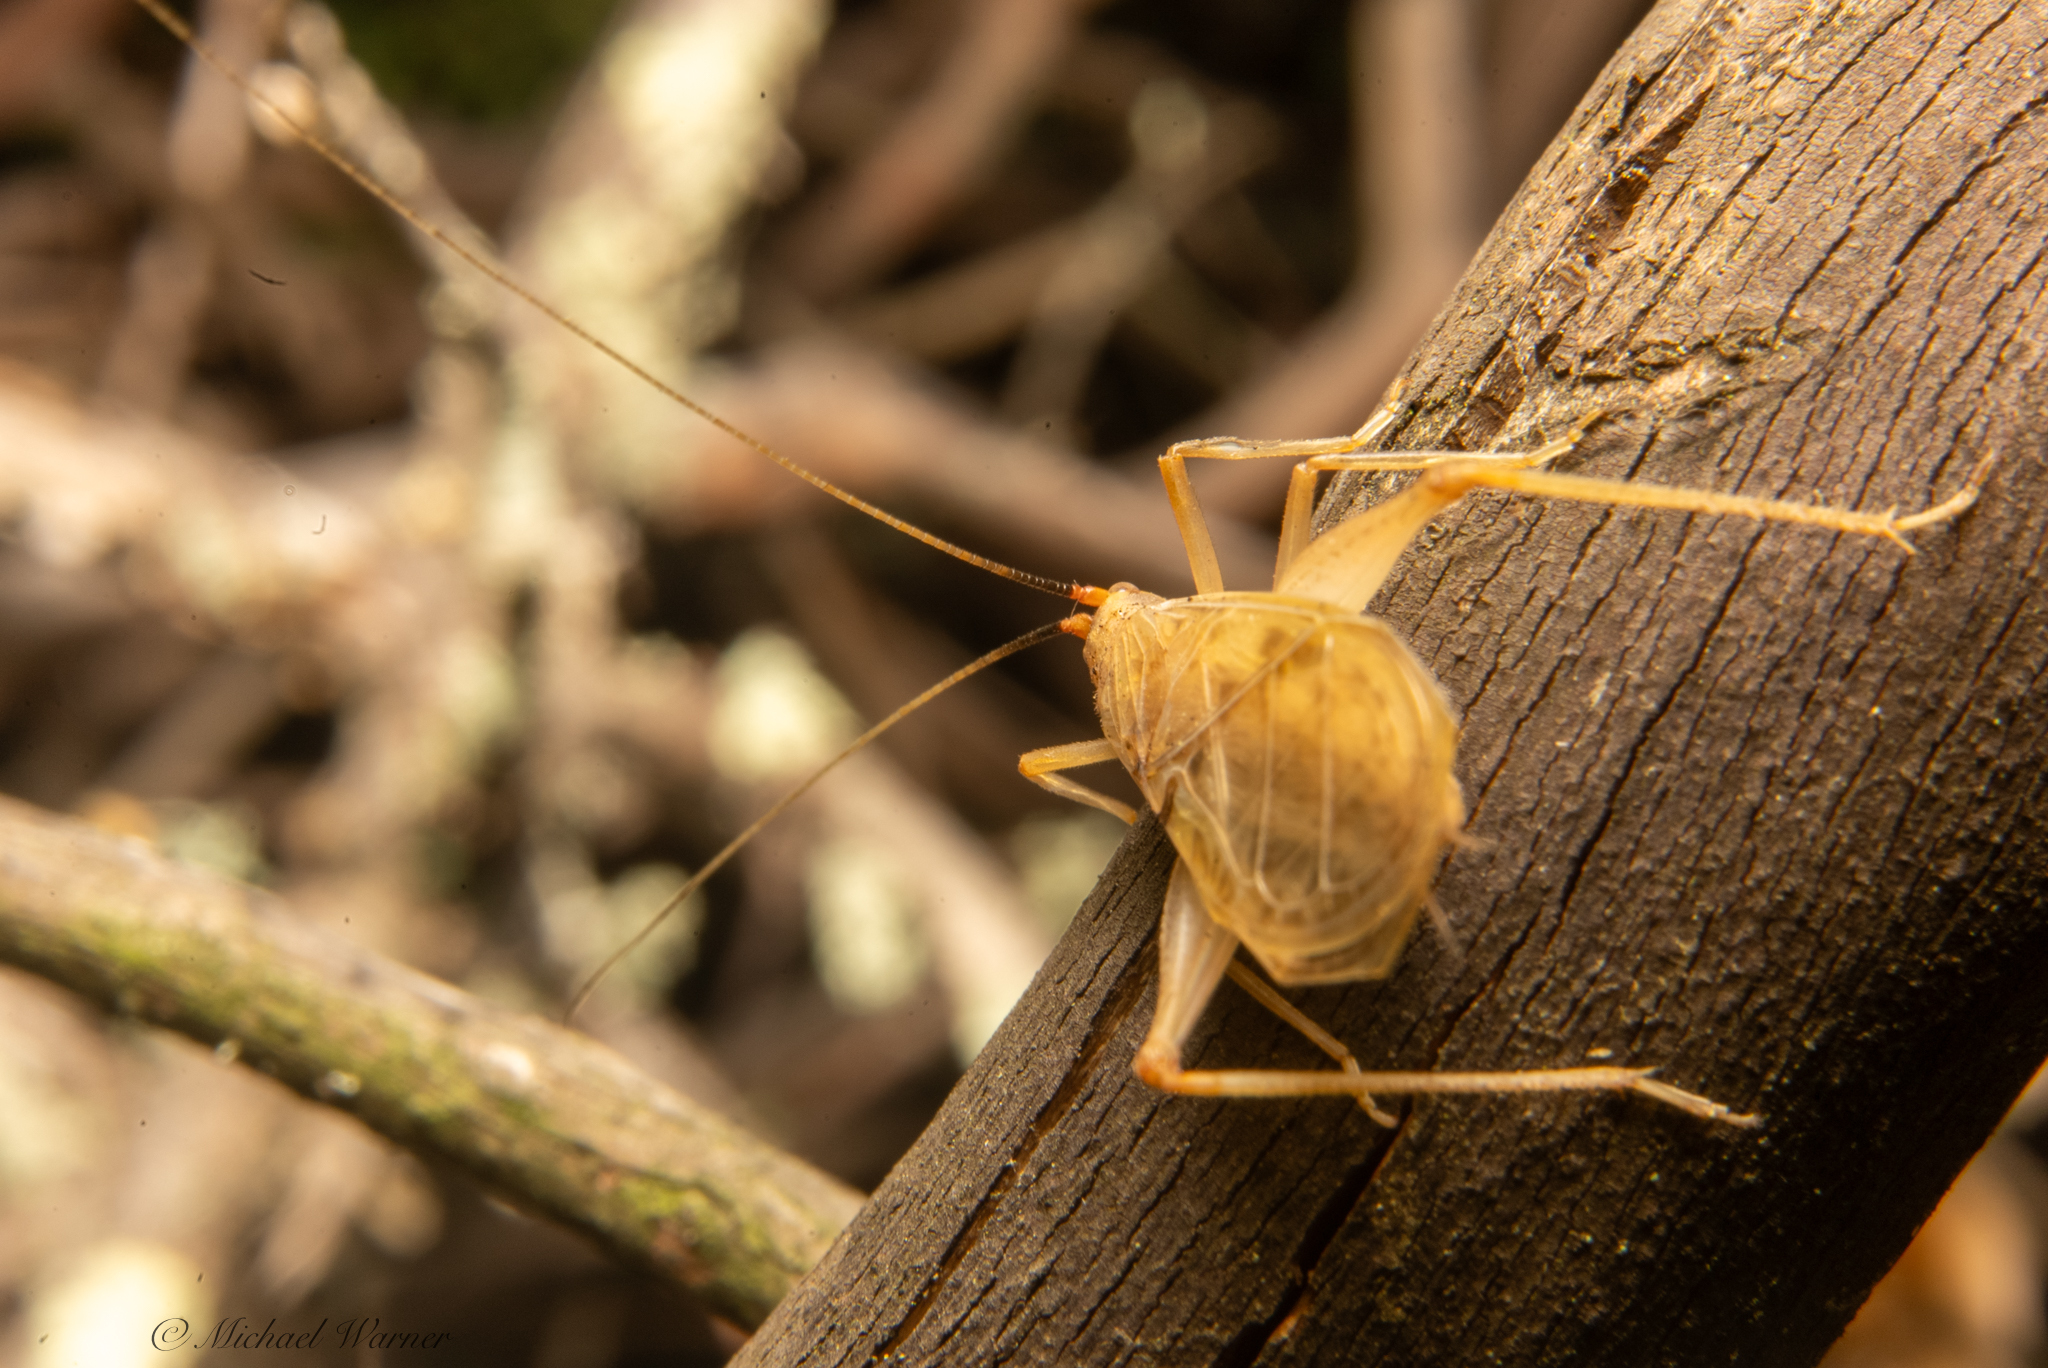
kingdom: Animalia
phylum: Arthropoda
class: Insecta
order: Orthoptera
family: Gryllidae
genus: Oecanthus
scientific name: Oecanthus californicus
